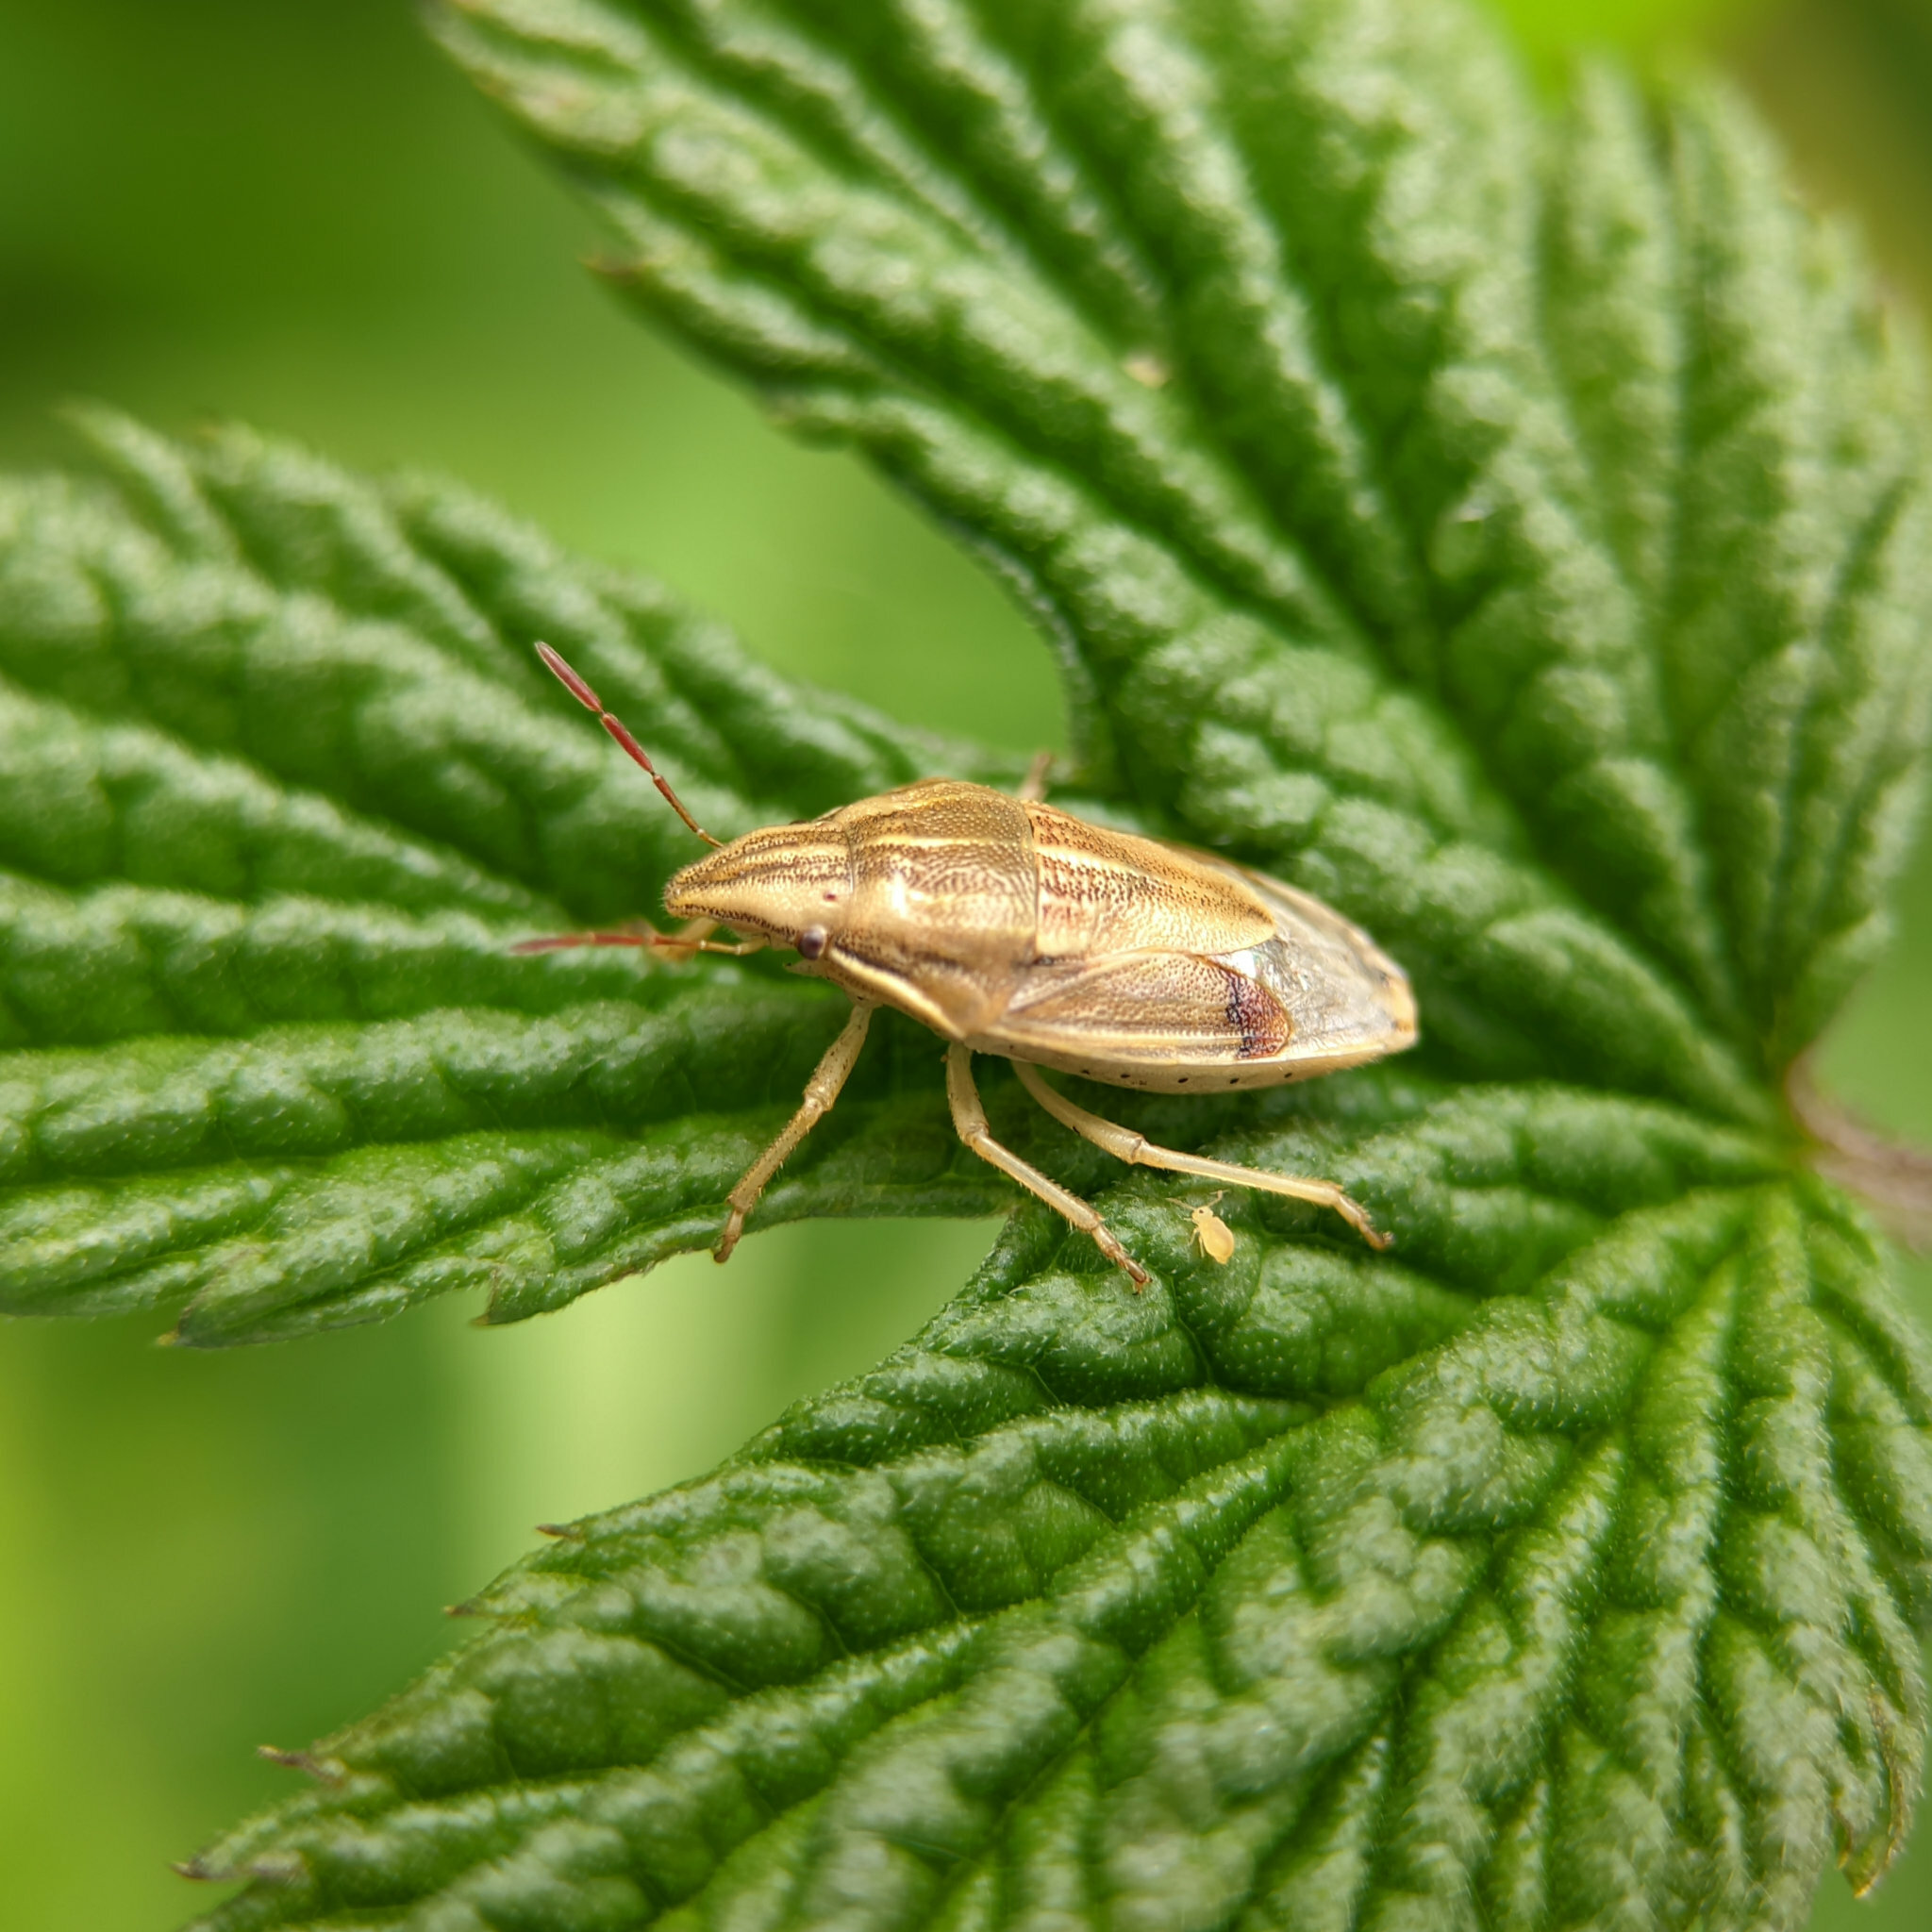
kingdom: Animalia
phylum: Arthropoda
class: Insecta
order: Hemiptera
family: Pentatomidae
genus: Aelia
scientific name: Aelia acuminata
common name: Bishop's mitre
